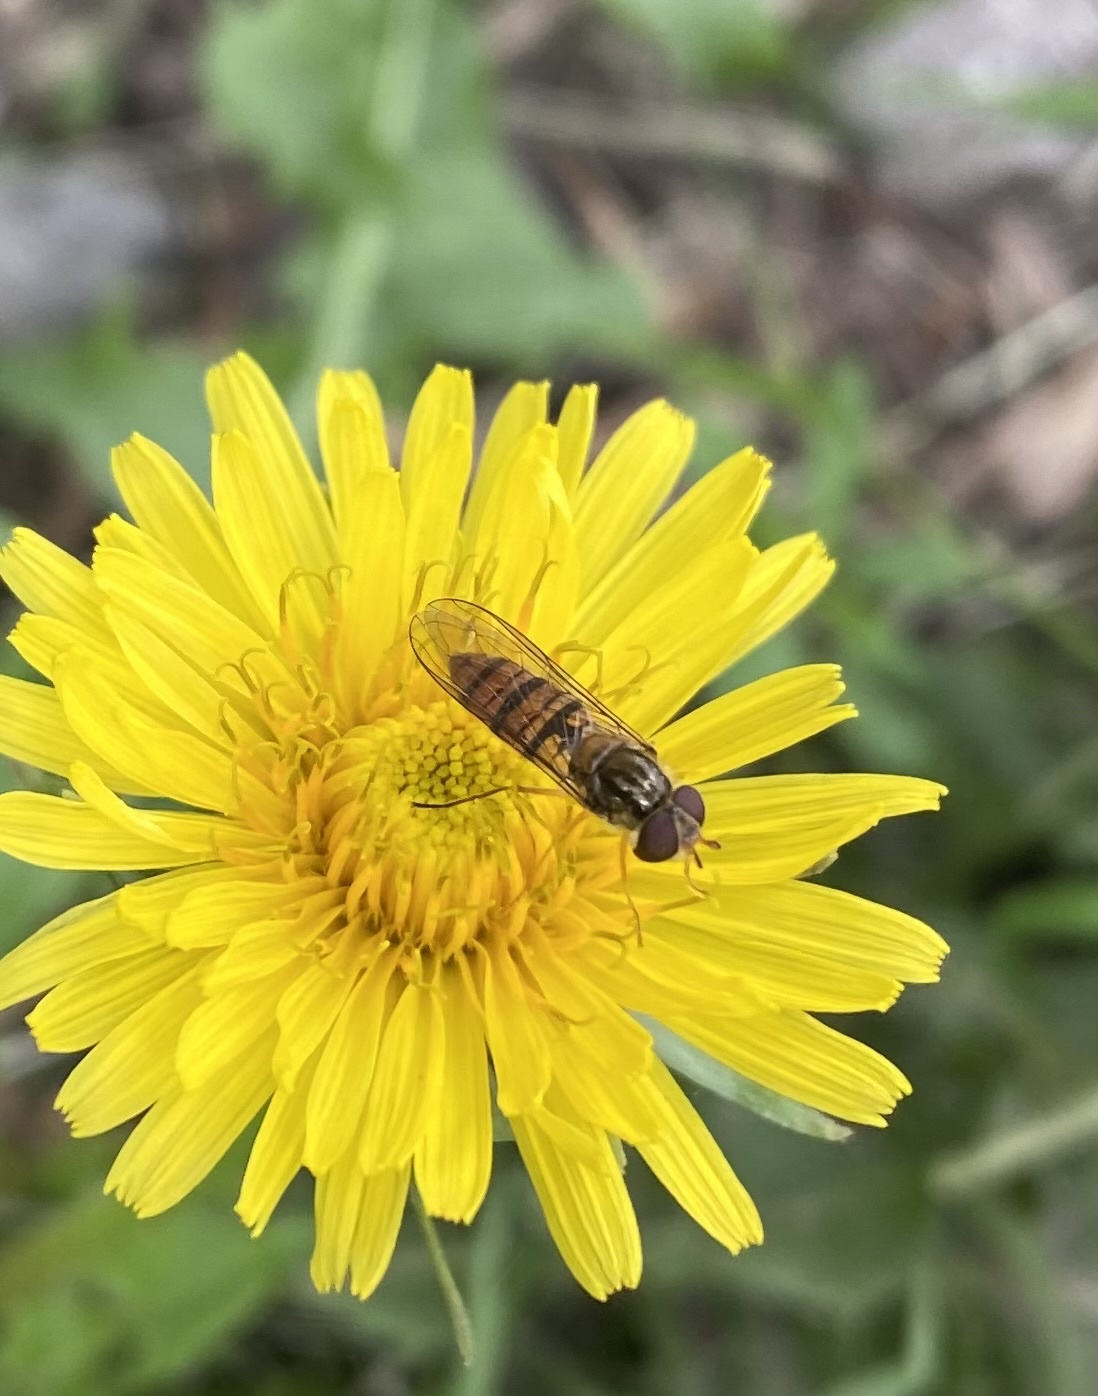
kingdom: Animalia
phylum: Arthropoda
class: Insecta
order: Diptera
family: Syrphidae
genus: Episyrphus
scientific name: Episyrphus balteatus
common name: Marmalade hoverfly
